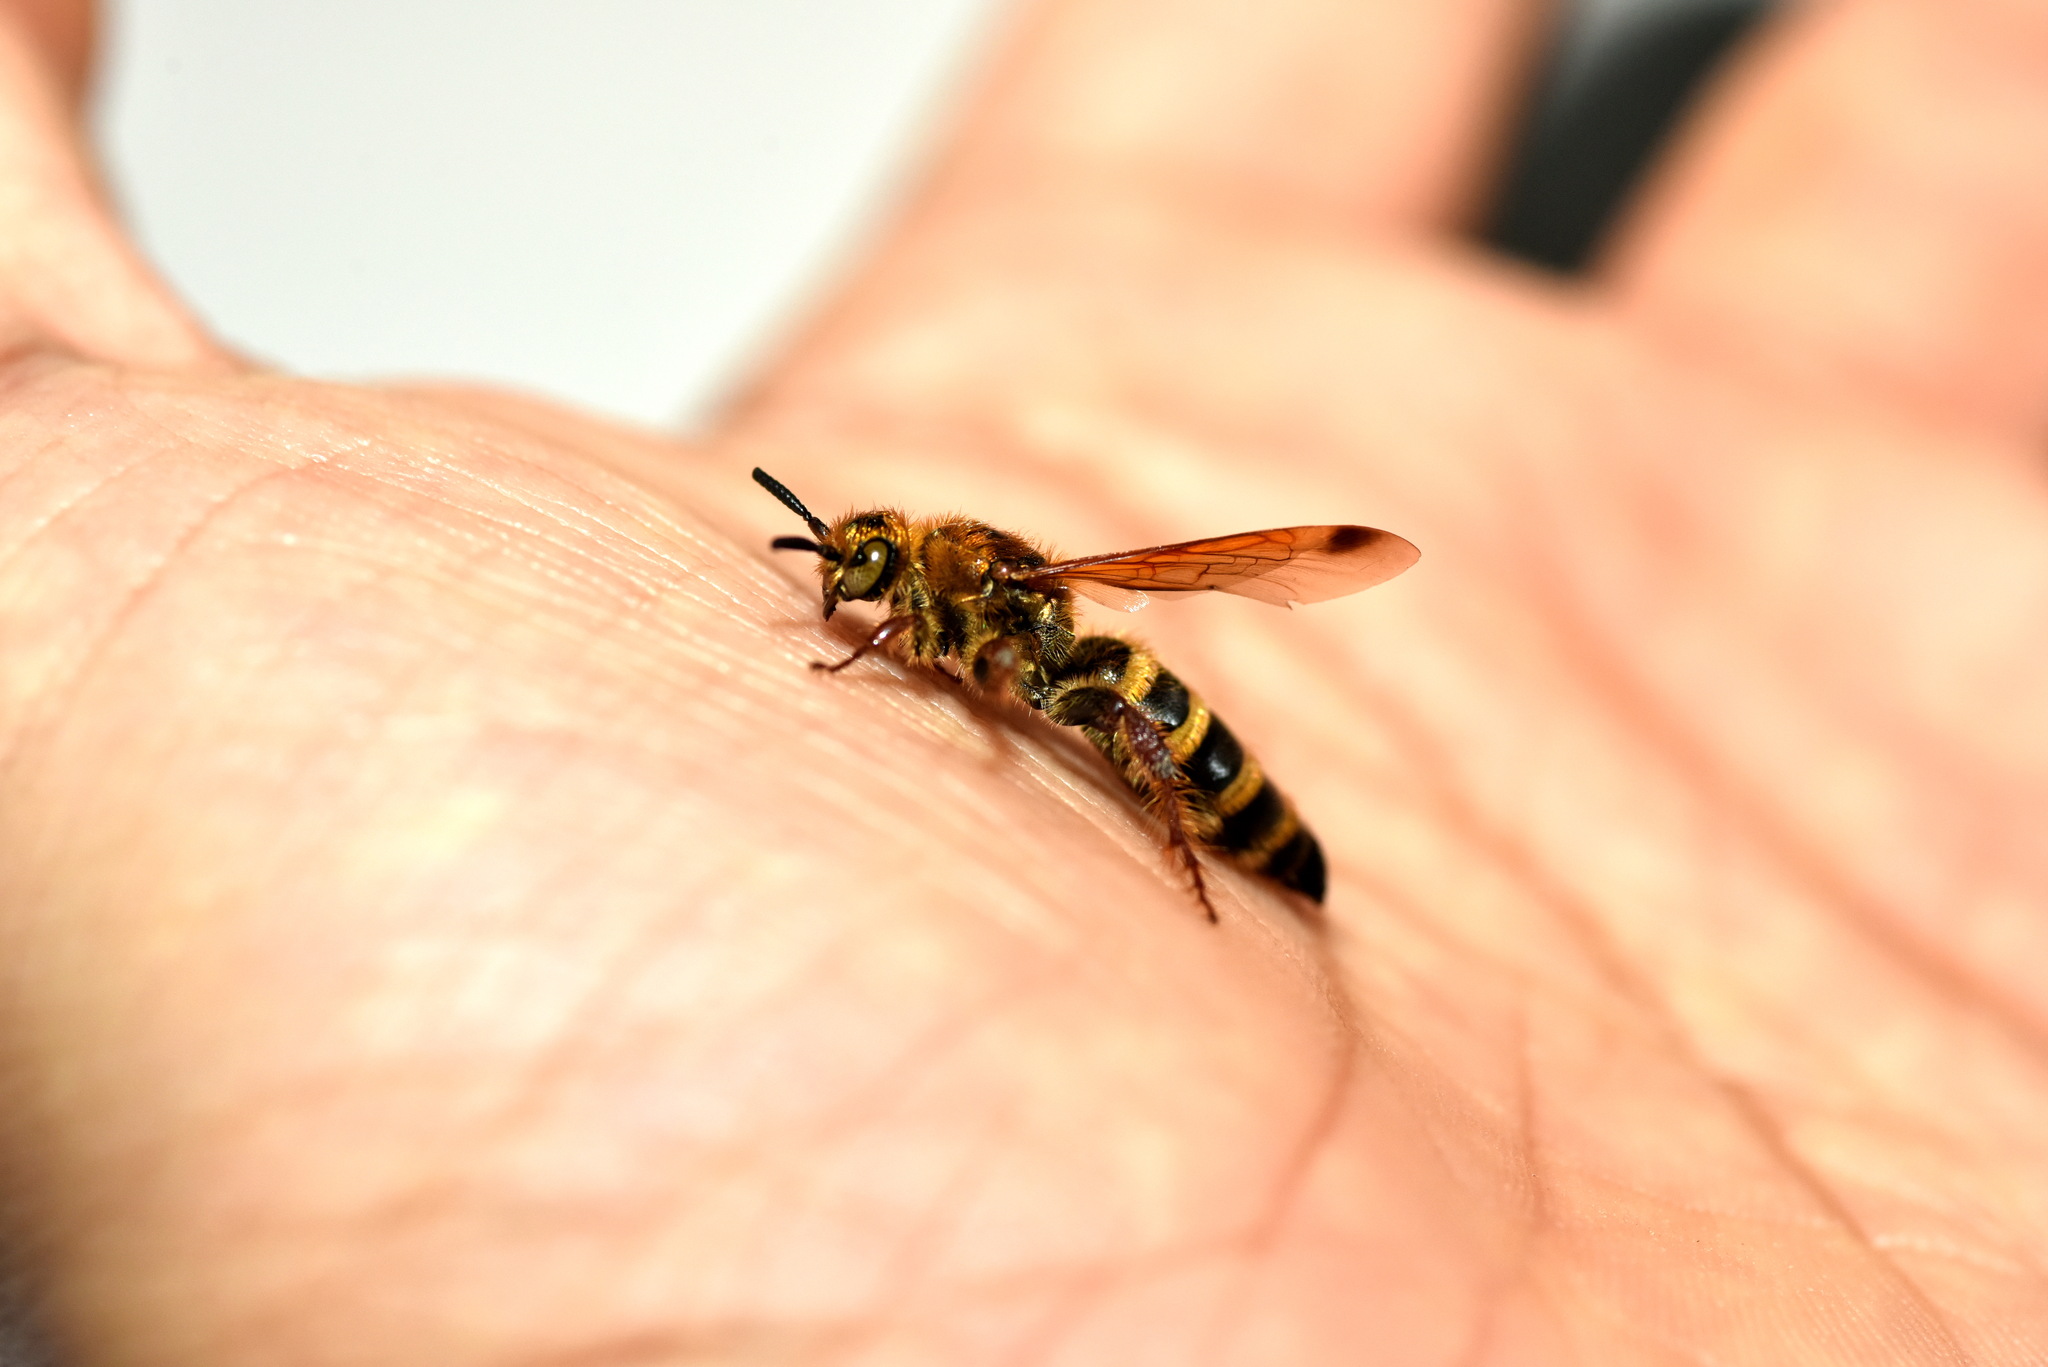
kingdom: Animalia
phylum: Arthropoda
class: Insecta
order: Hymenoptera
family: Scoliidae
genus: Campsomeris
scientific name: Campsomeris phalerata
